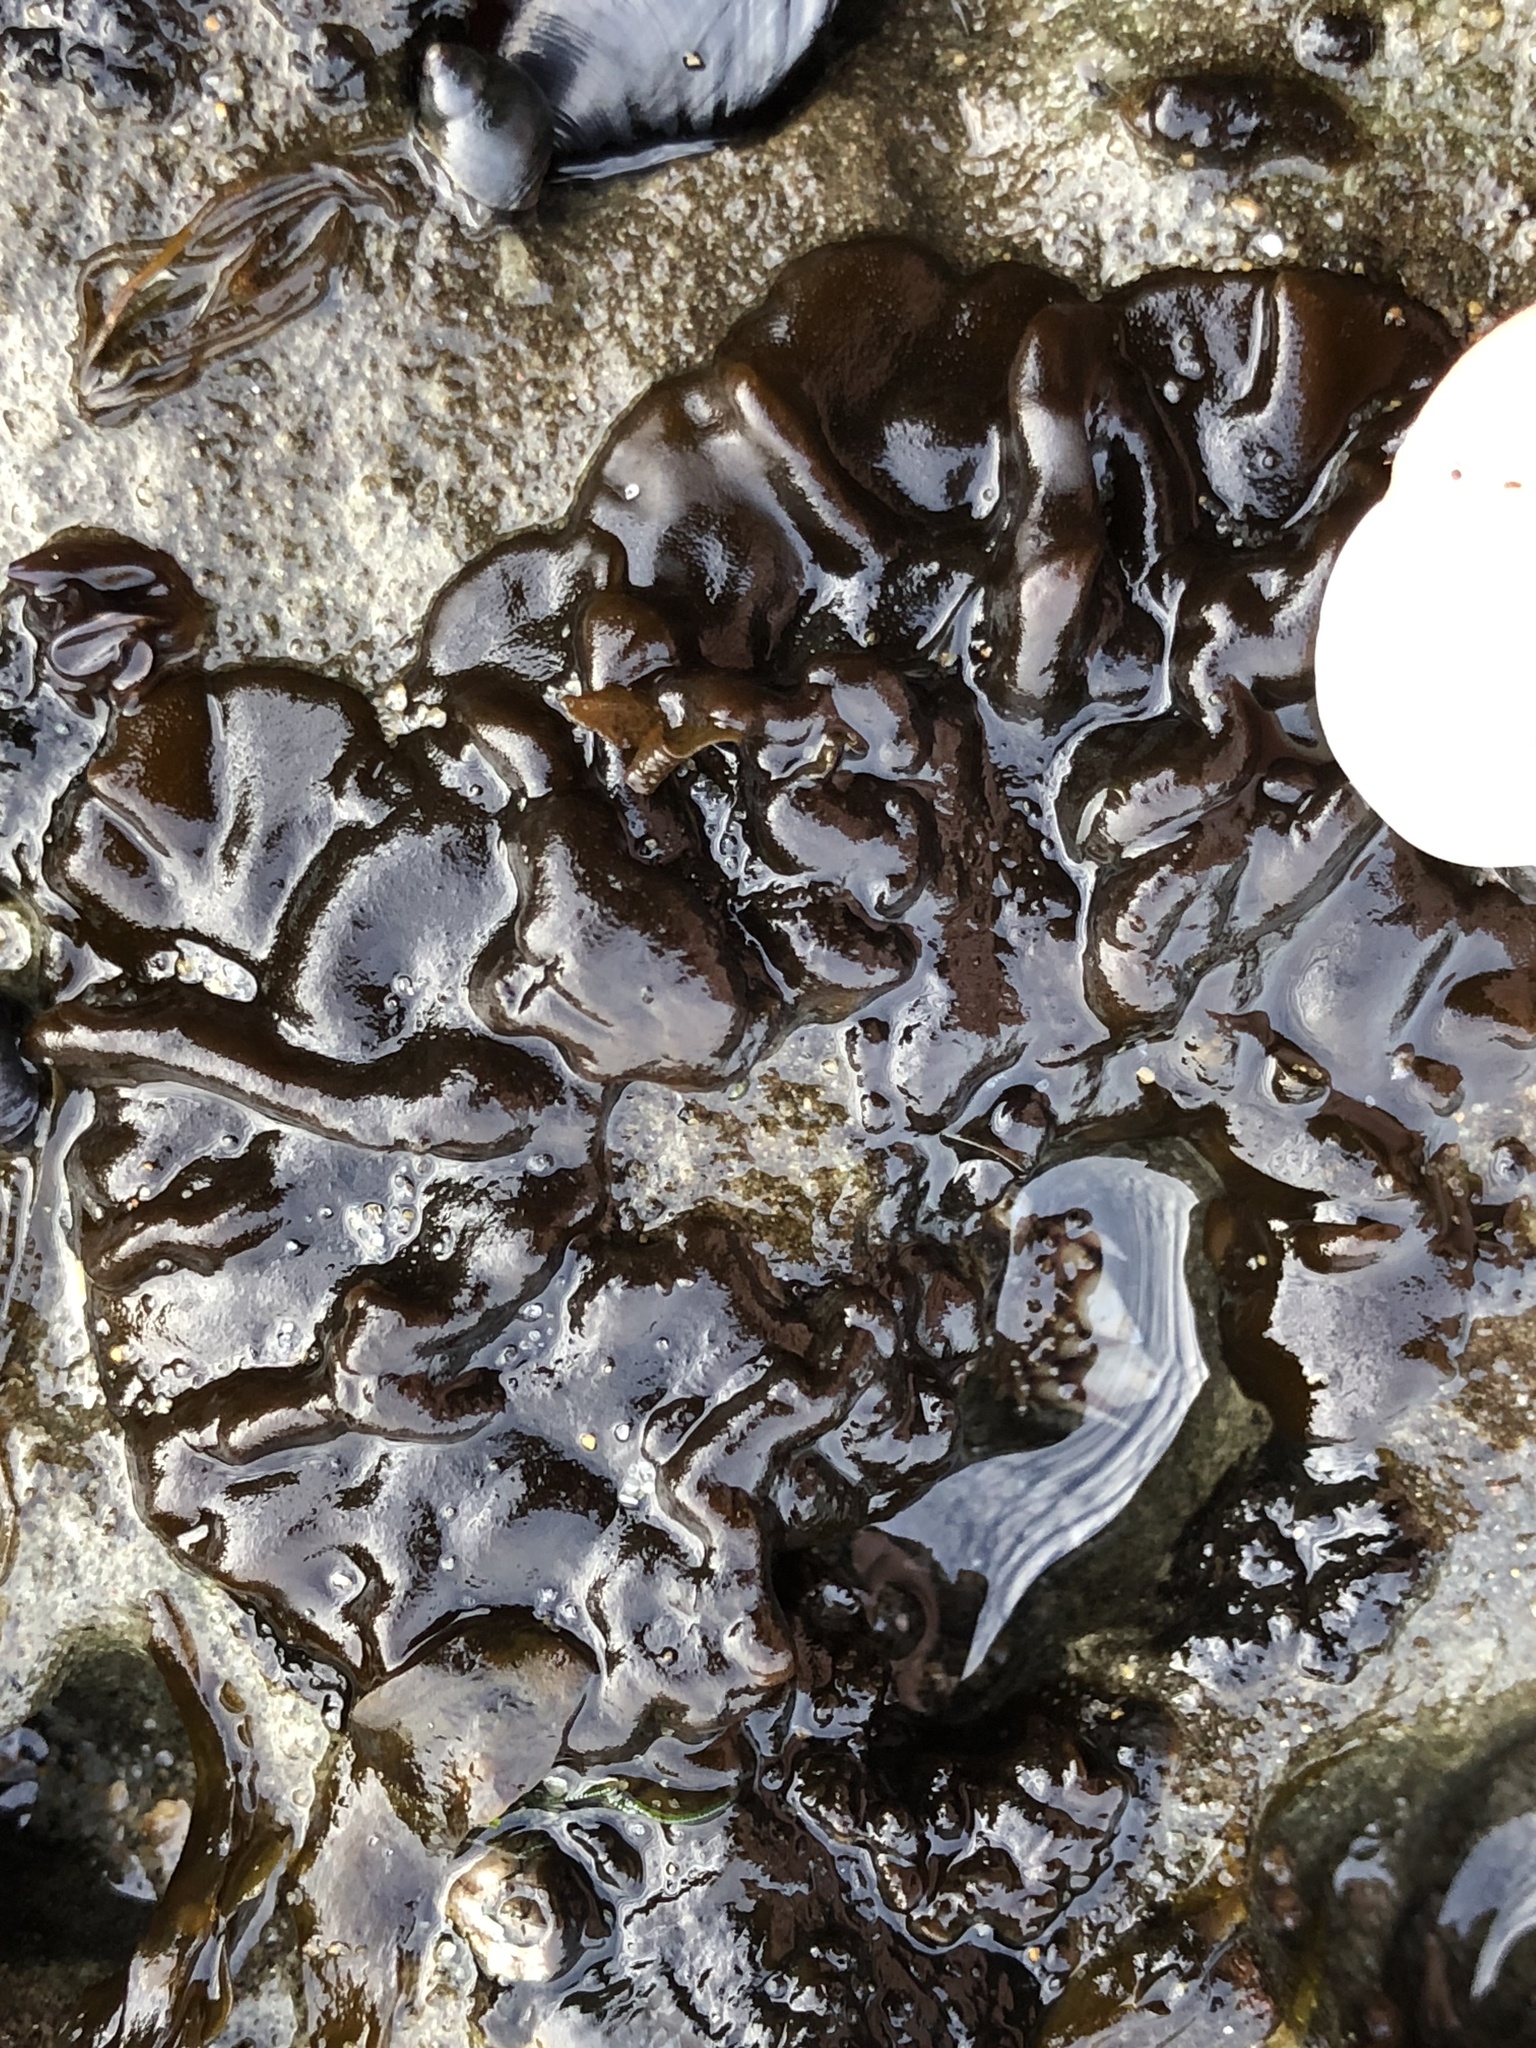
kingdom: Chromista
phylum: Ochrophyta
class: Phaeophyceae
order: Ectocarpales
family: Petrospongiaceae
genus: Petrospongium
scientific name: Petrospongium rugosum
